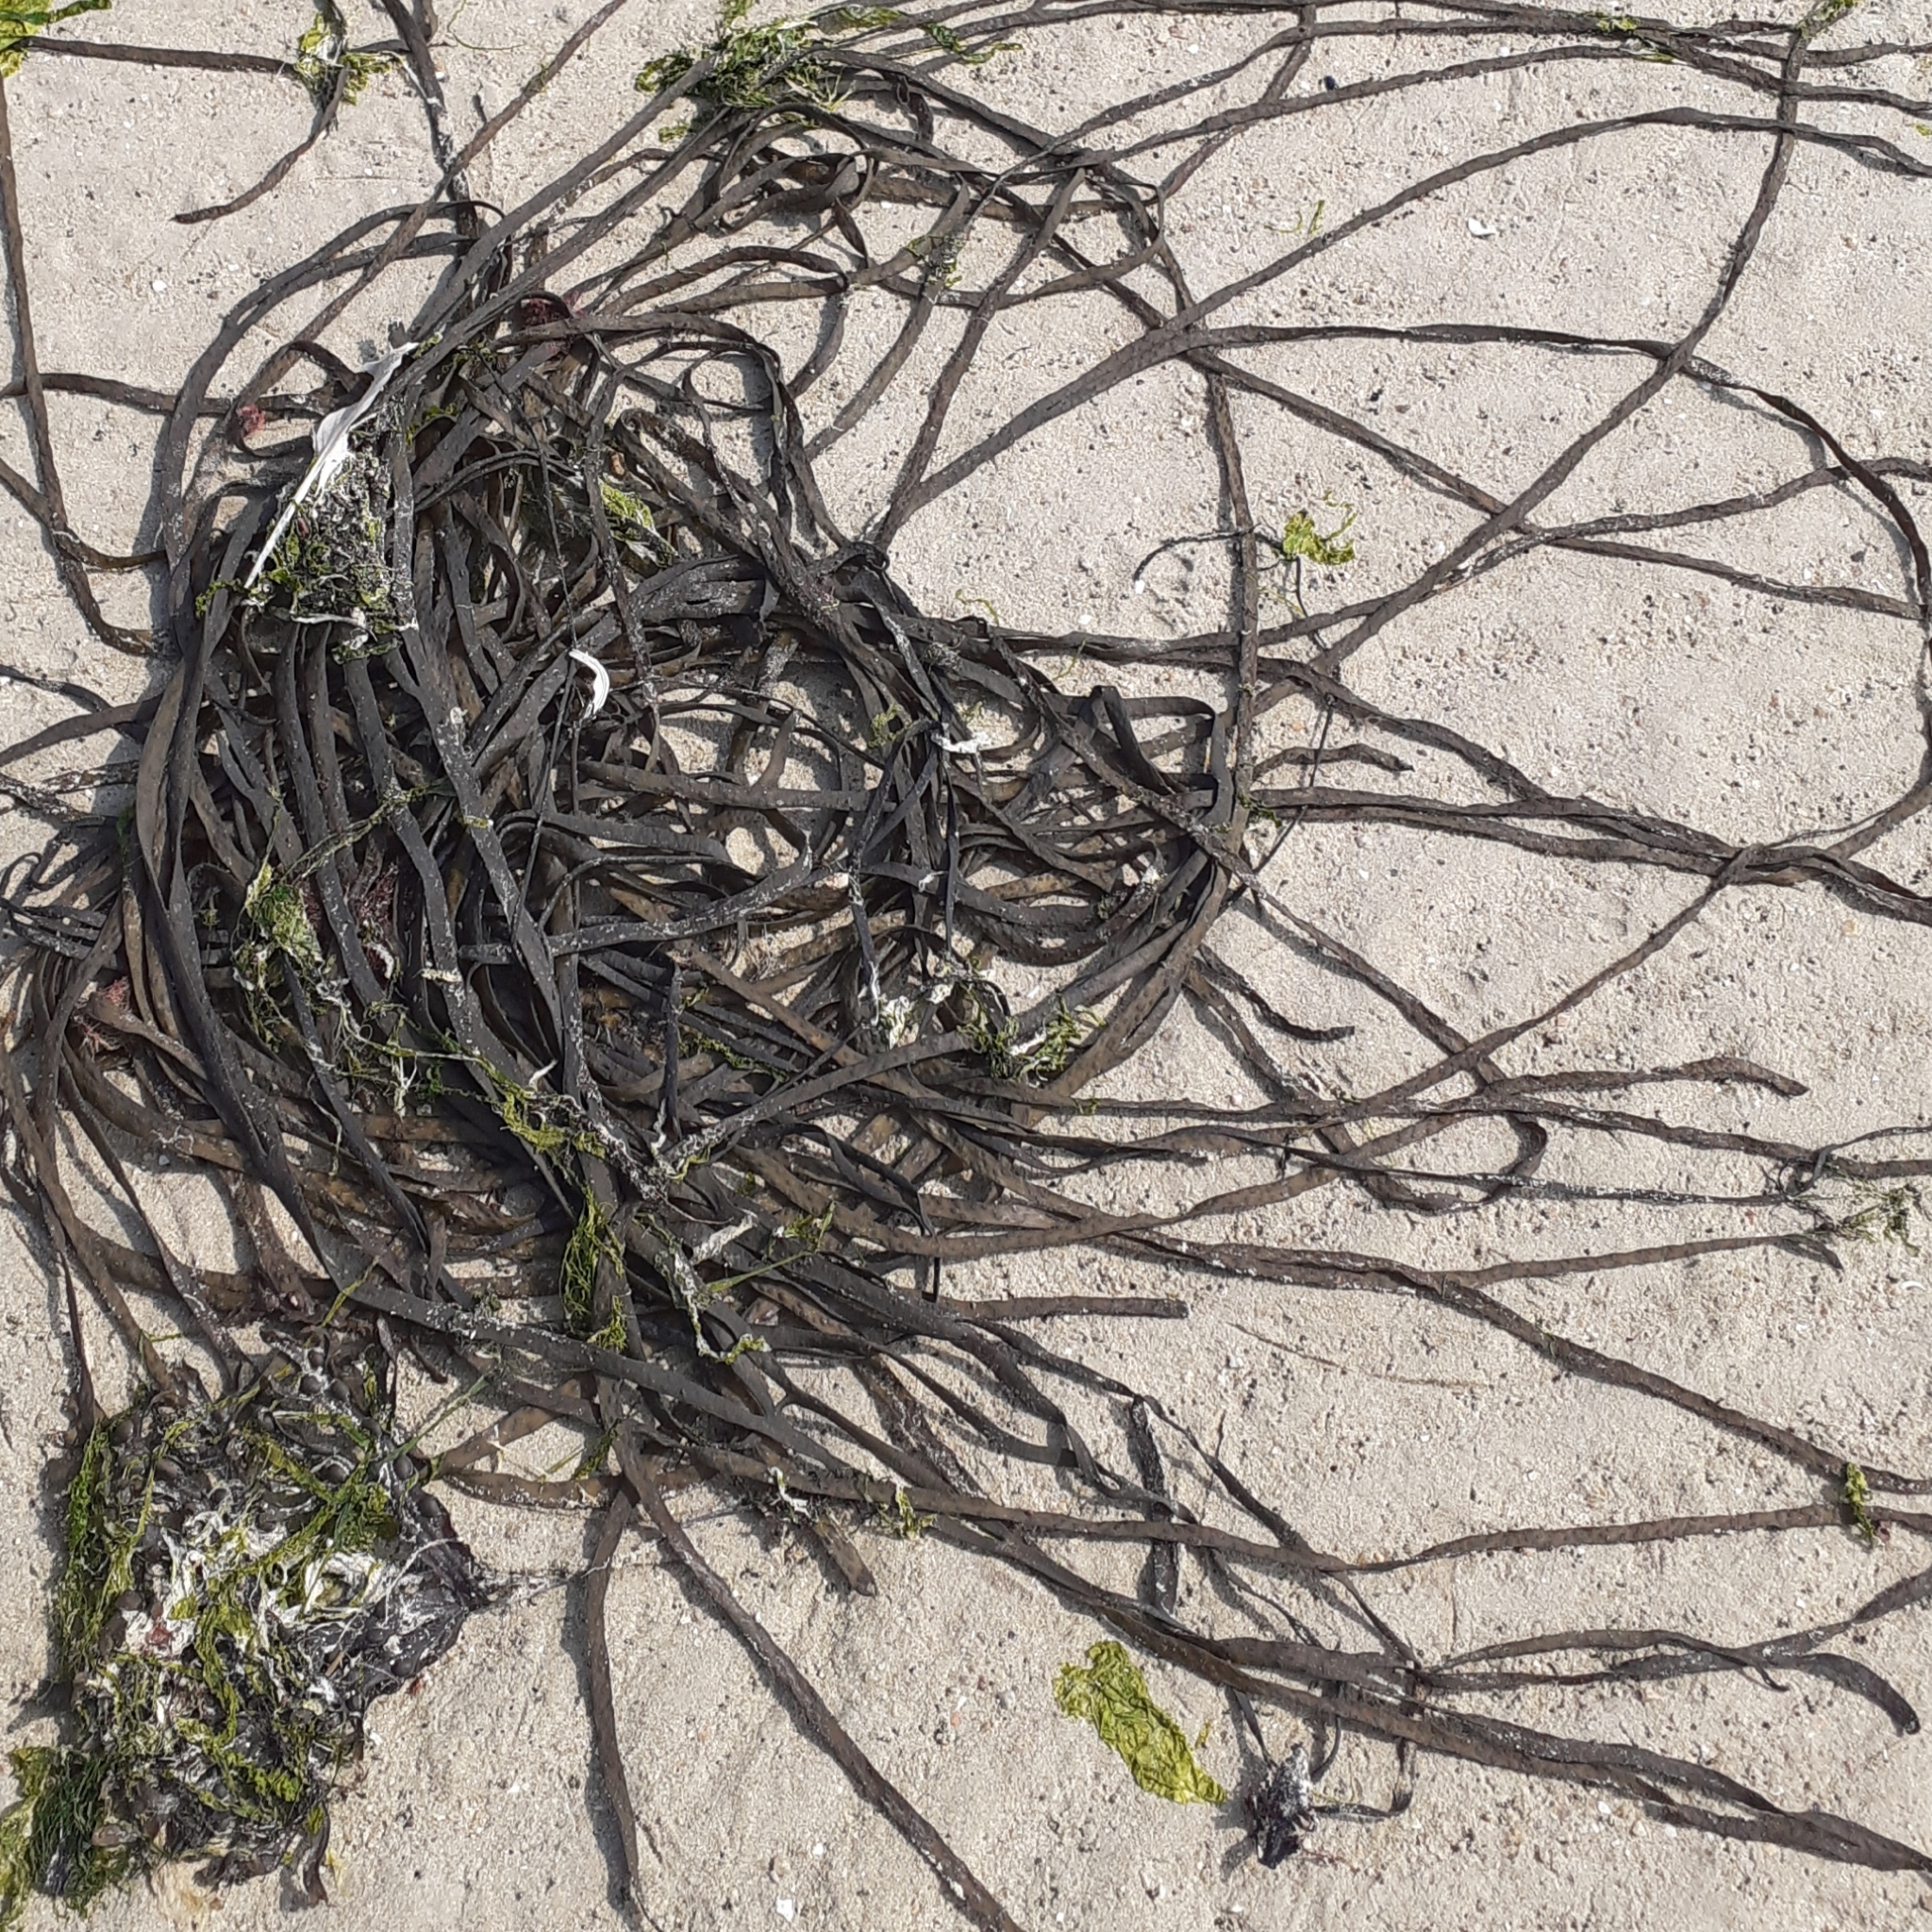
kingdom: Chromista
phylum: Ochrophyta
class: Phaeophyceae
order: Fucales
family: Himanthaliaceae
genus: Himanthalia
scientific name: Himanthalia elongata
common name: Sea-thong
